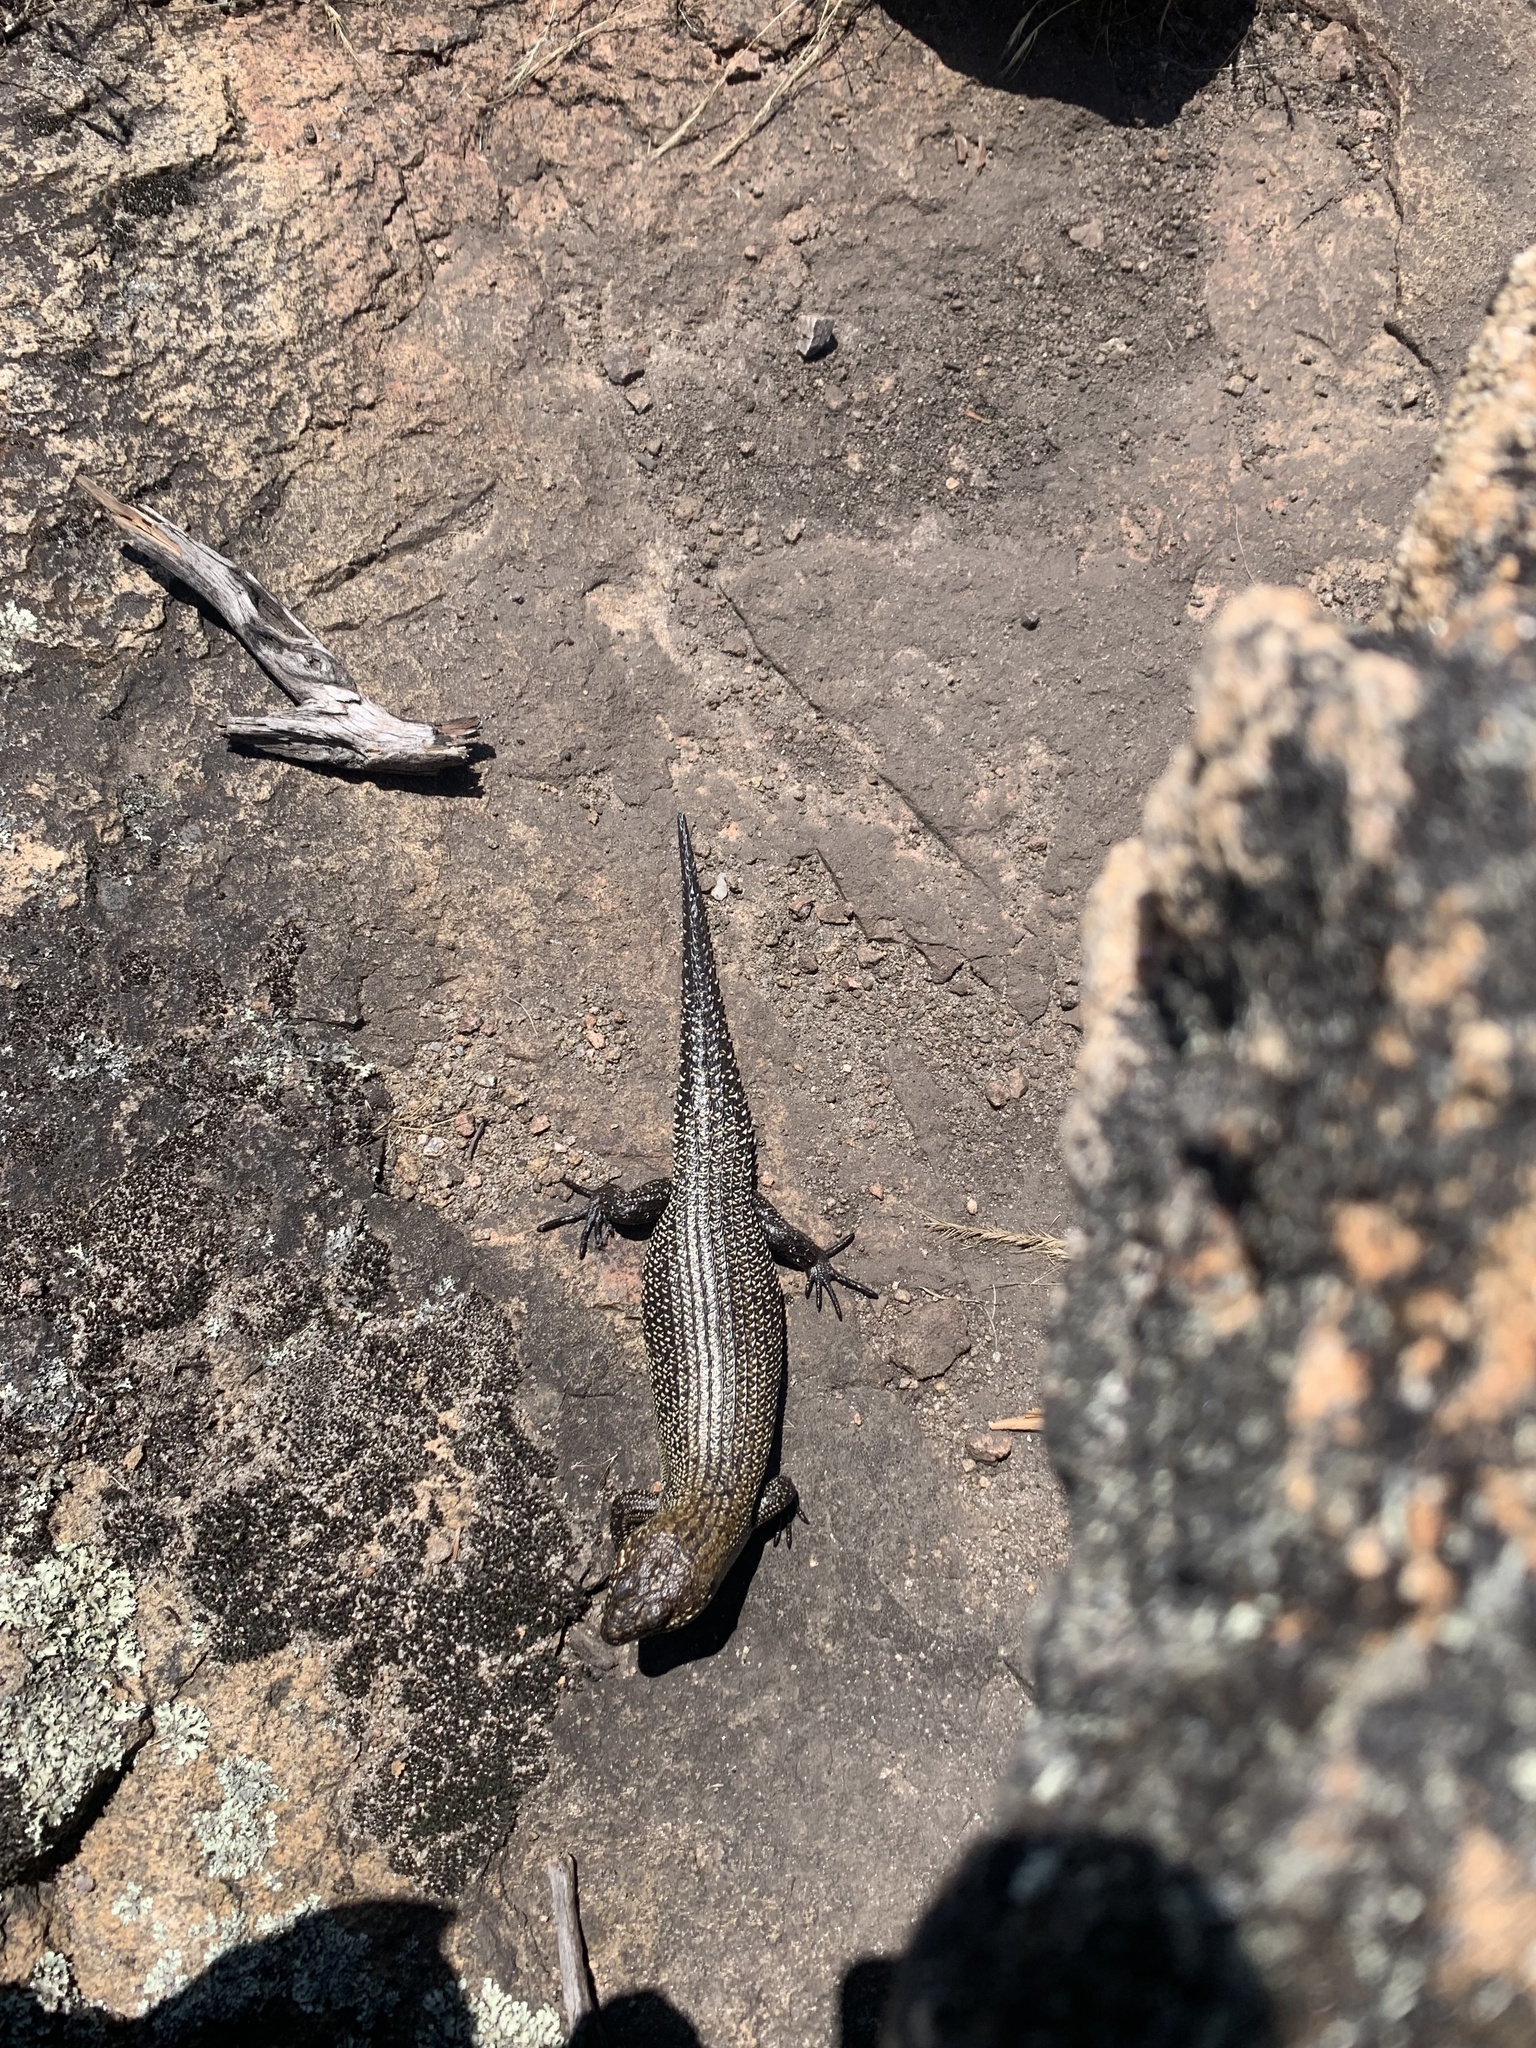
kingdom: Animalia
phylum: Chordata
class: Squamata
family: Scincidae
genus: Egernia
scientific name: Egernia cunninghami
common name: Cunningham's skink
